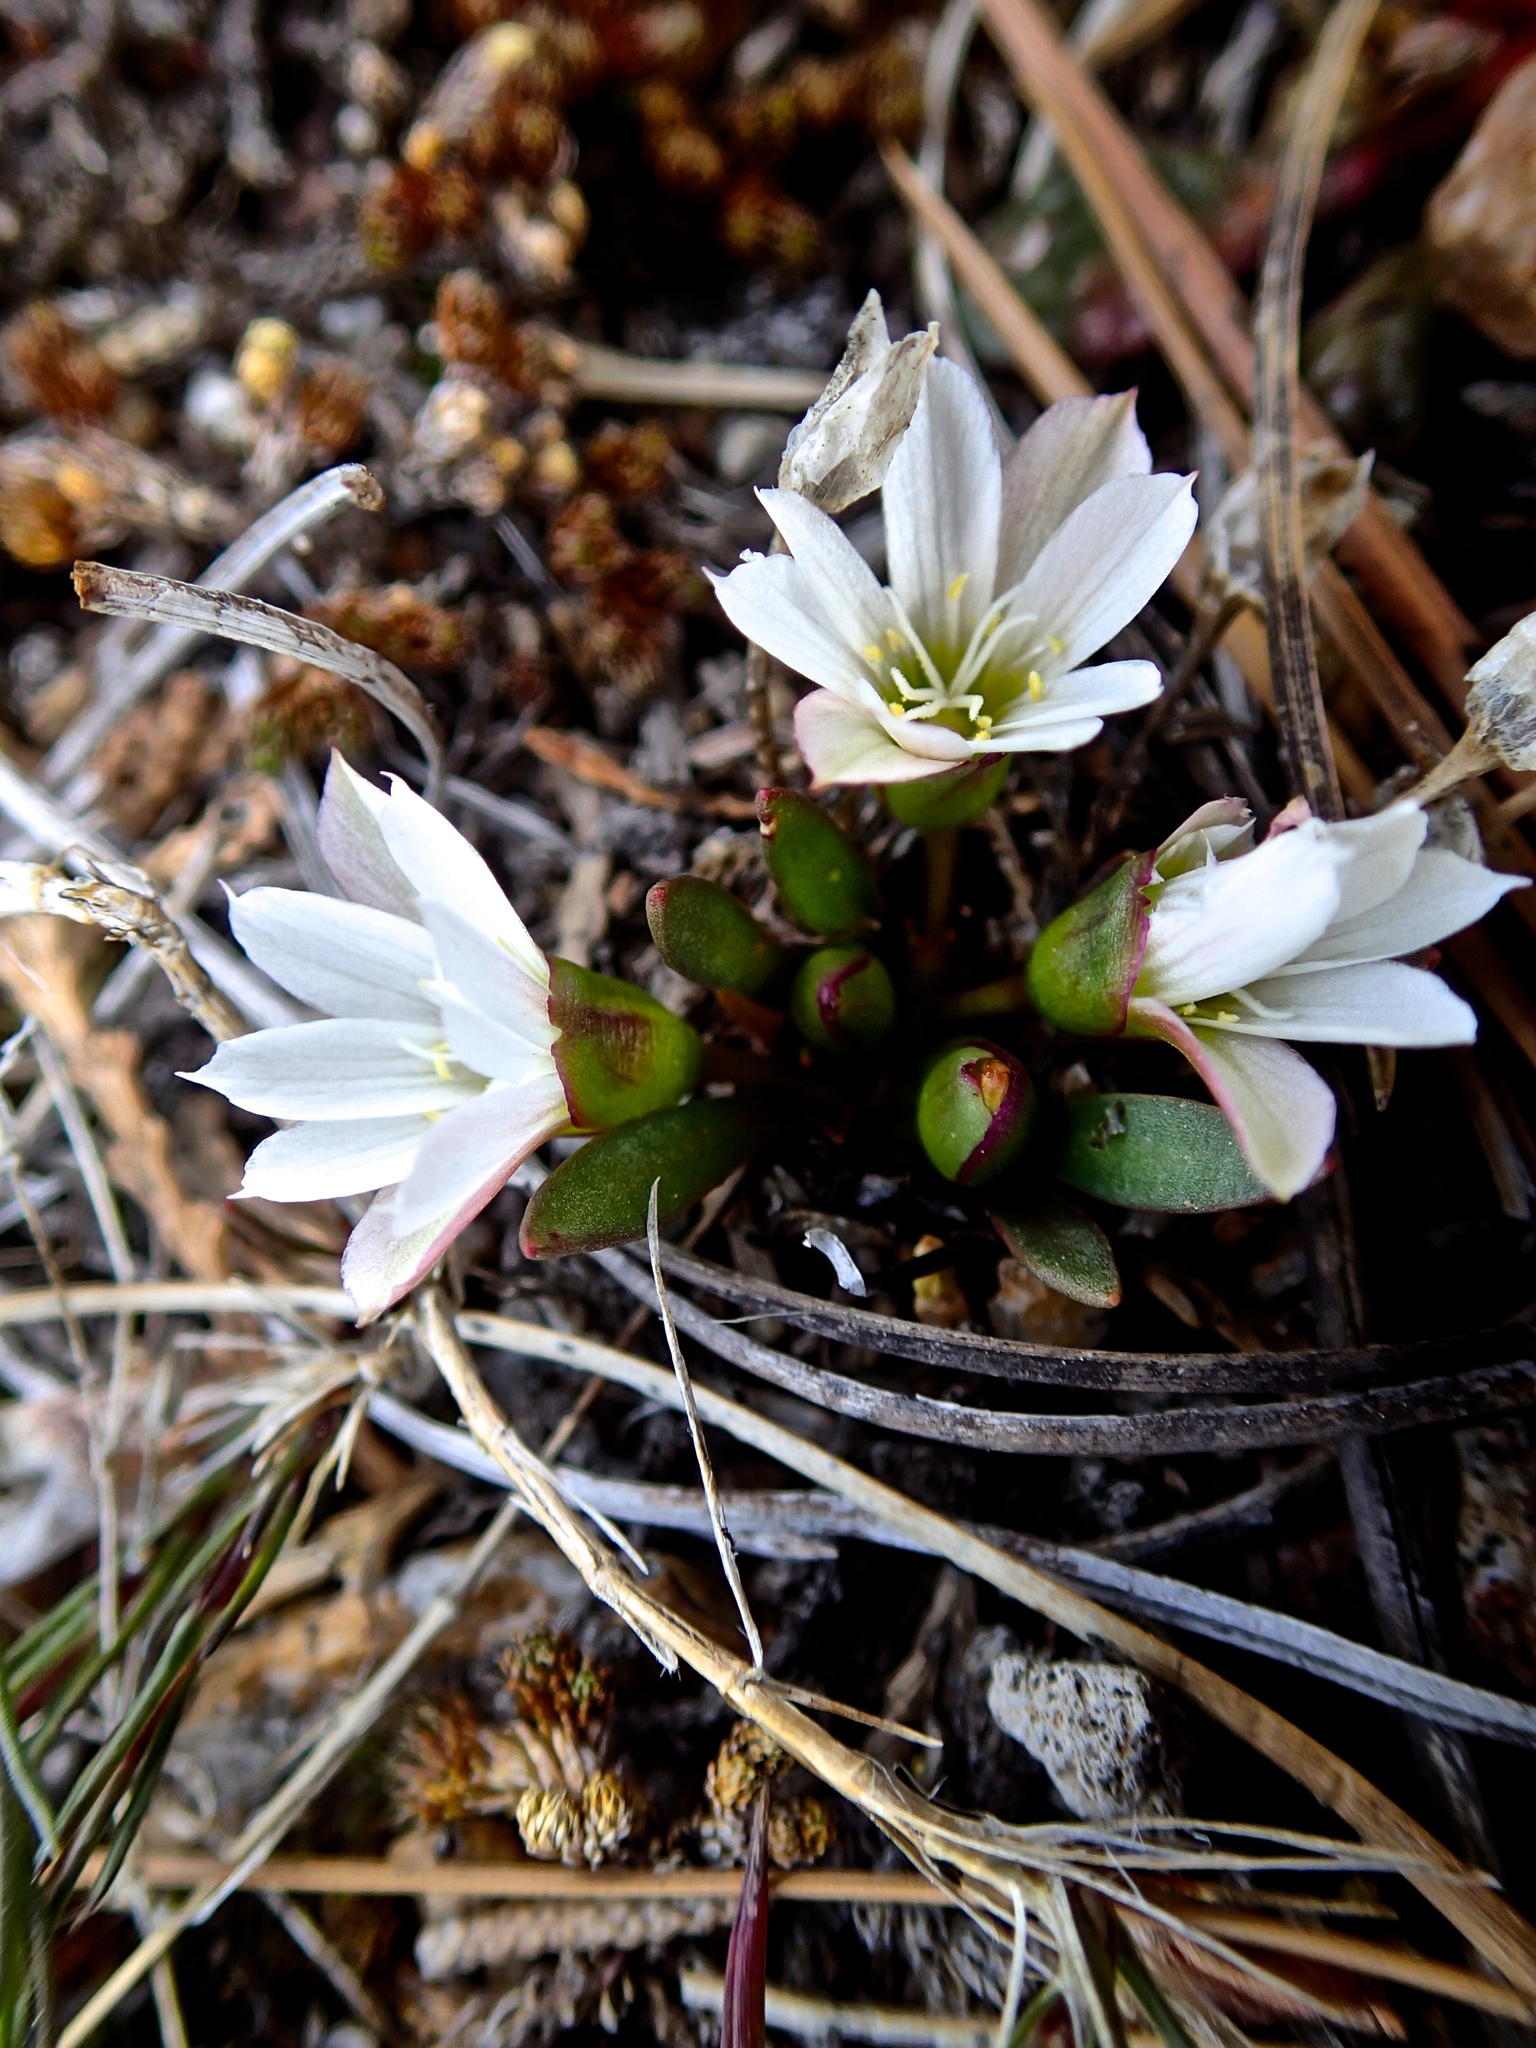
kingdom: Plantae
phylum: Tracheophyta
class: Magnoliopsida
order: Caryophyllales
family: Montiaceae
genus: Lewisia
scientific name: Lewisia nevadensis
